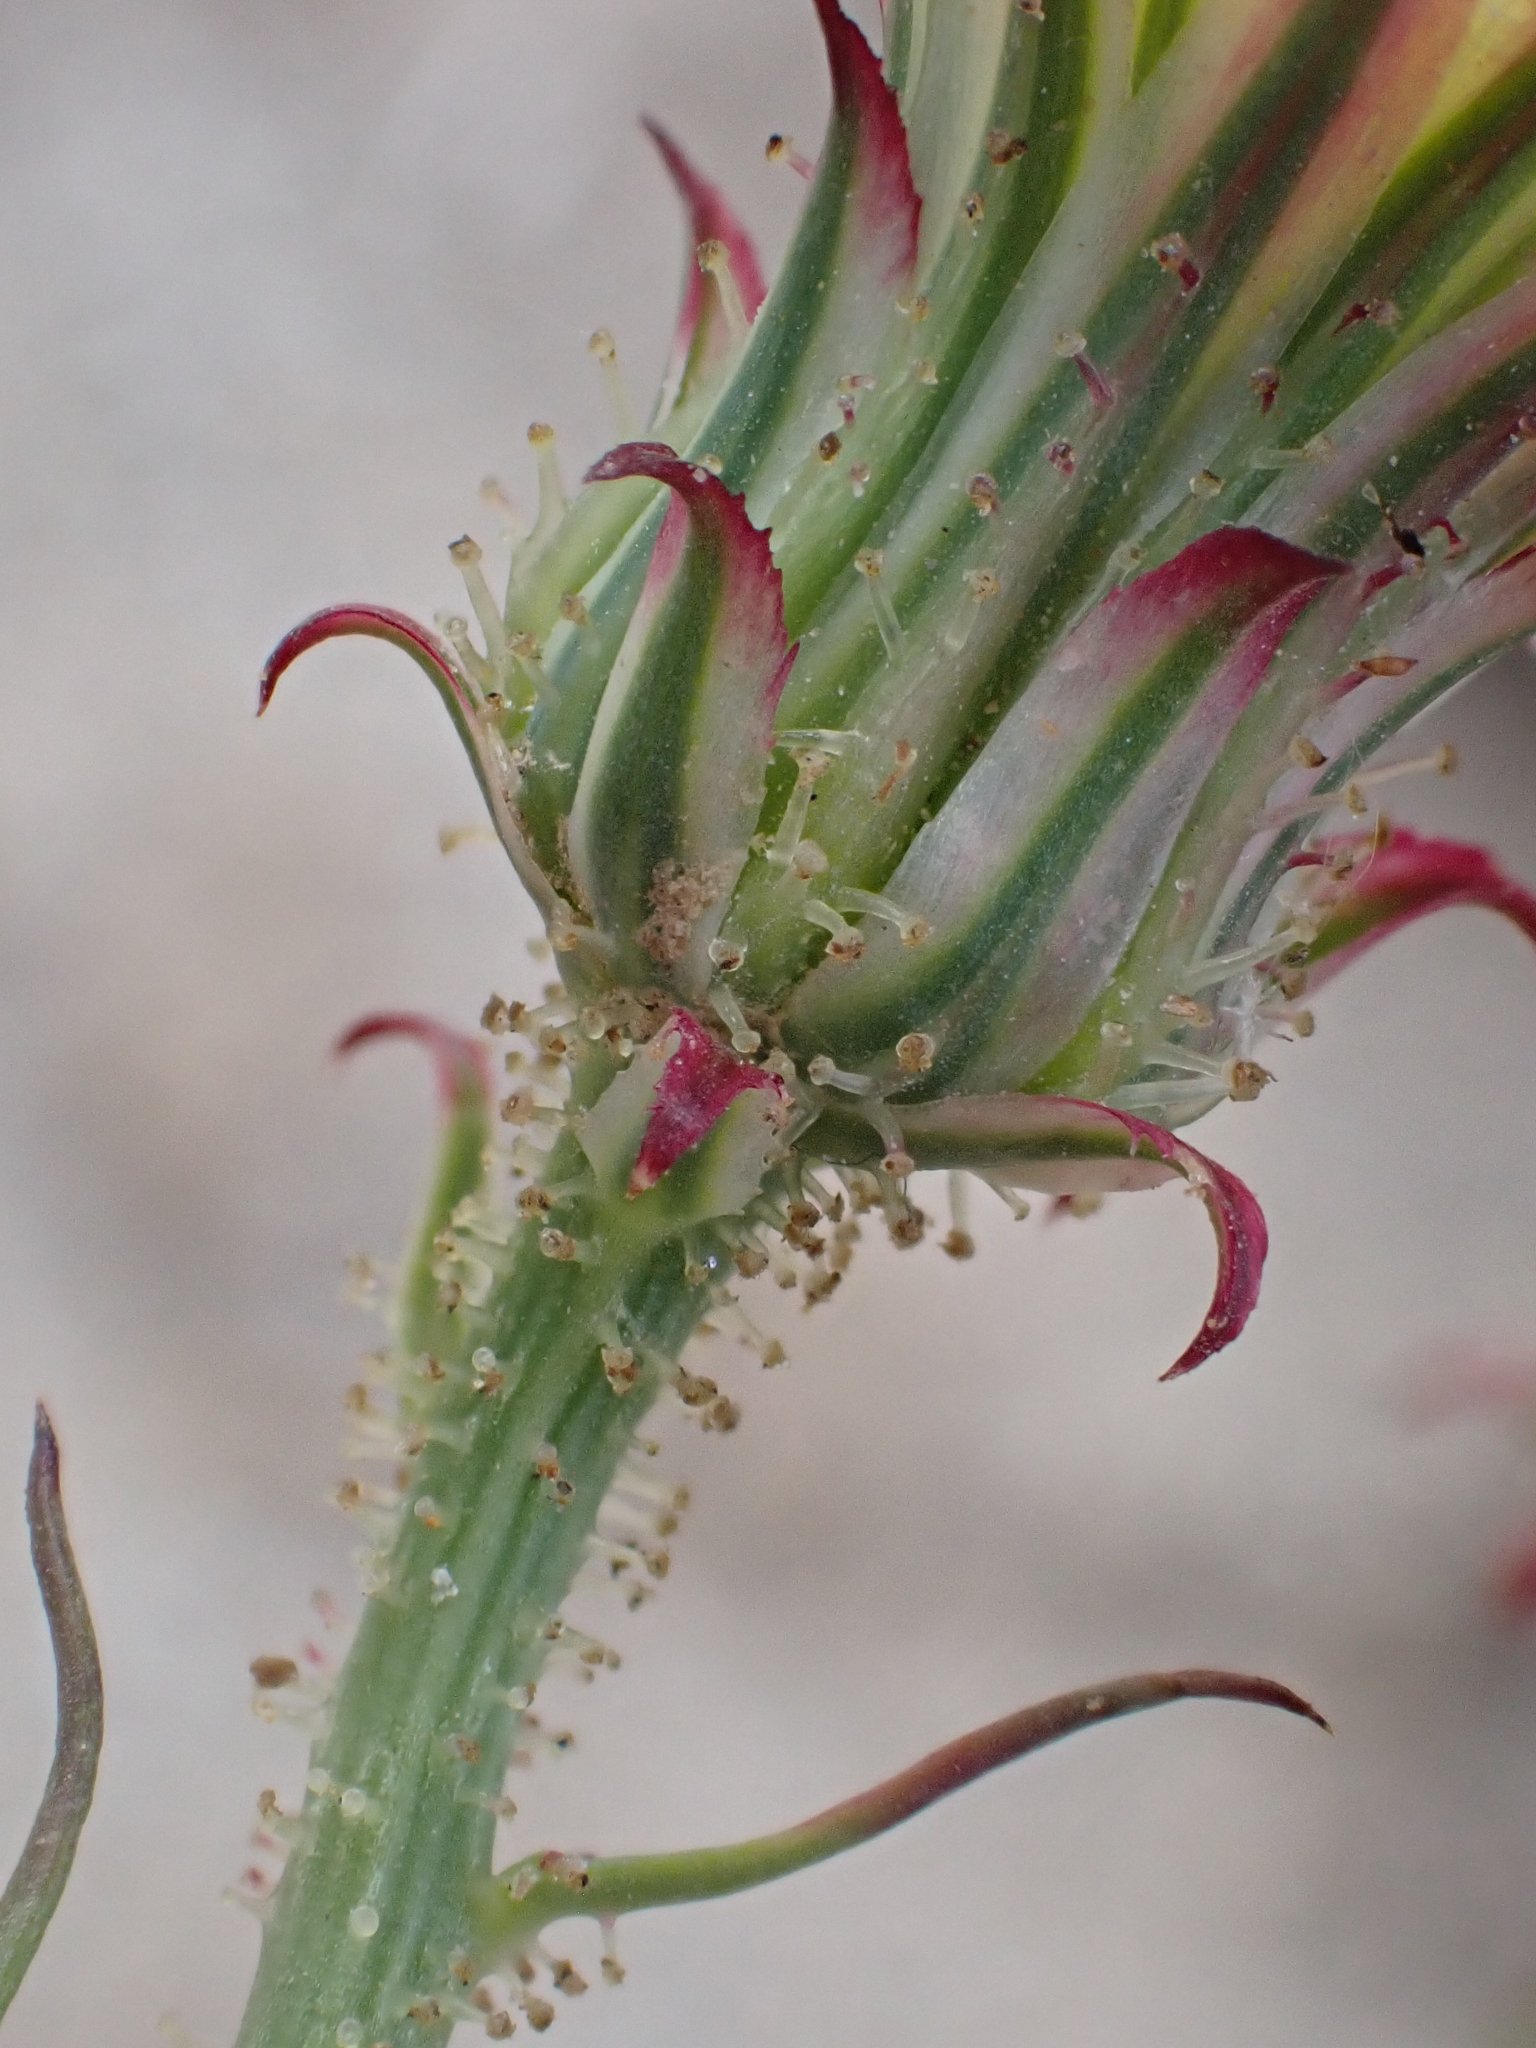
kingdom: Plantae
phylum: Tracheophyta
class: Magnoliopsida
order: Asterales
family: Asteraceae
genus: Calycoseris
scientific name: Calycoseris wrightii
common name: White tackstem
